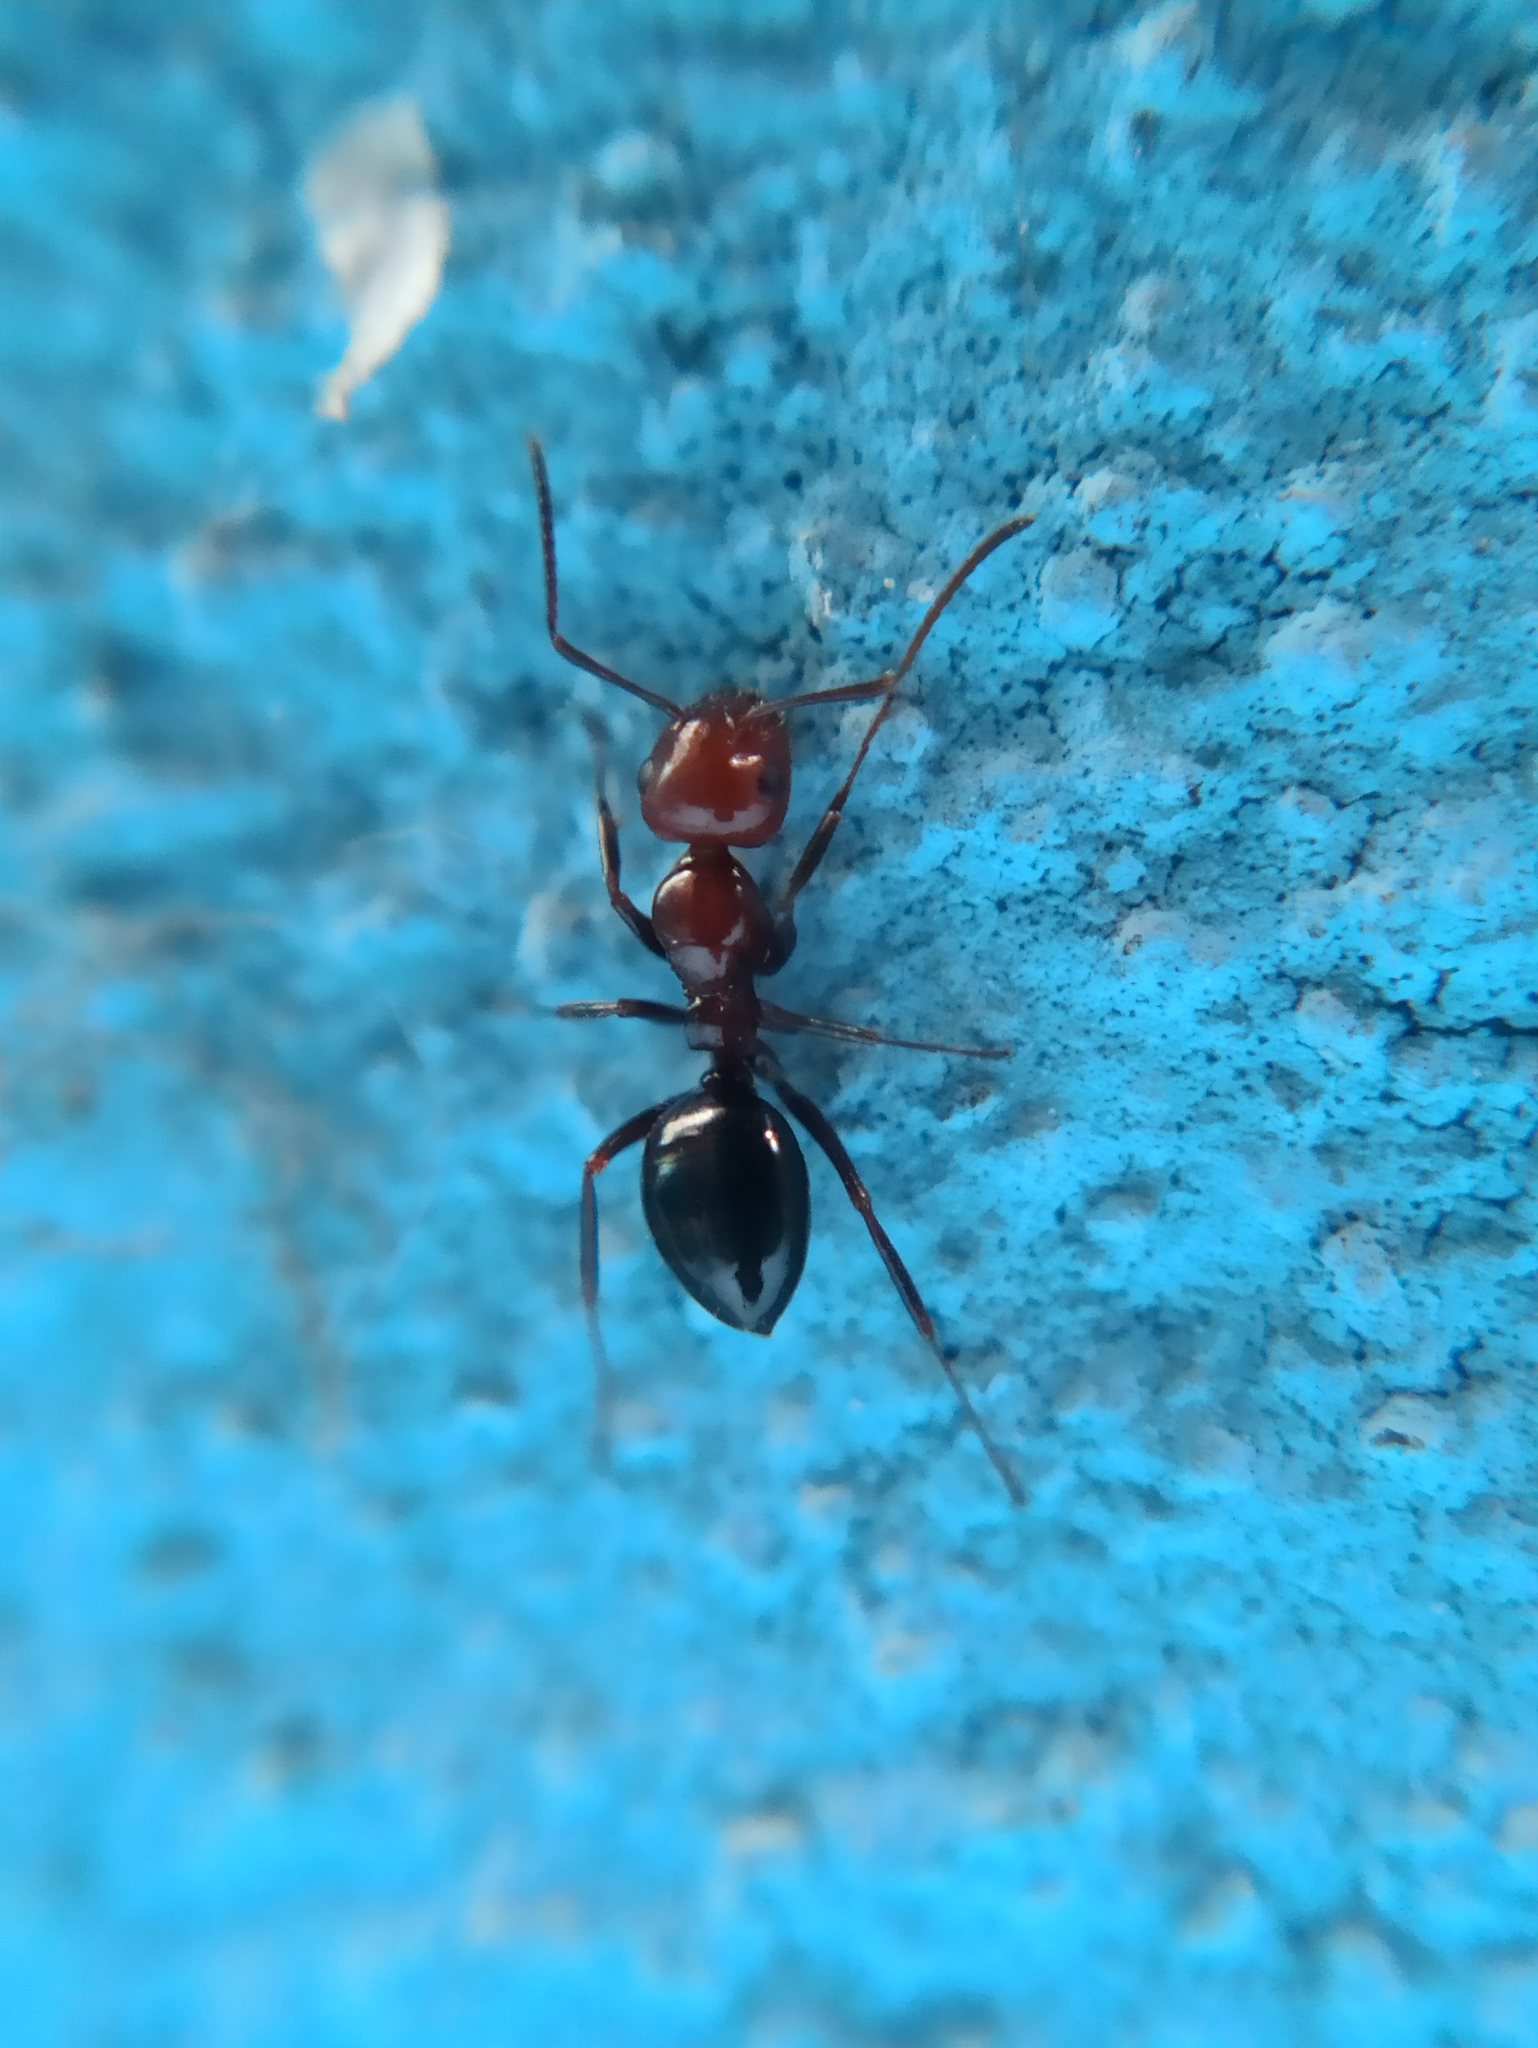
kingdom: Animalia
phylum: Arthropoda
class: Insecta
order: Hymenoptera
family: Formicidae
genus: Camponotus
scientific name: Camponotus lateralis
